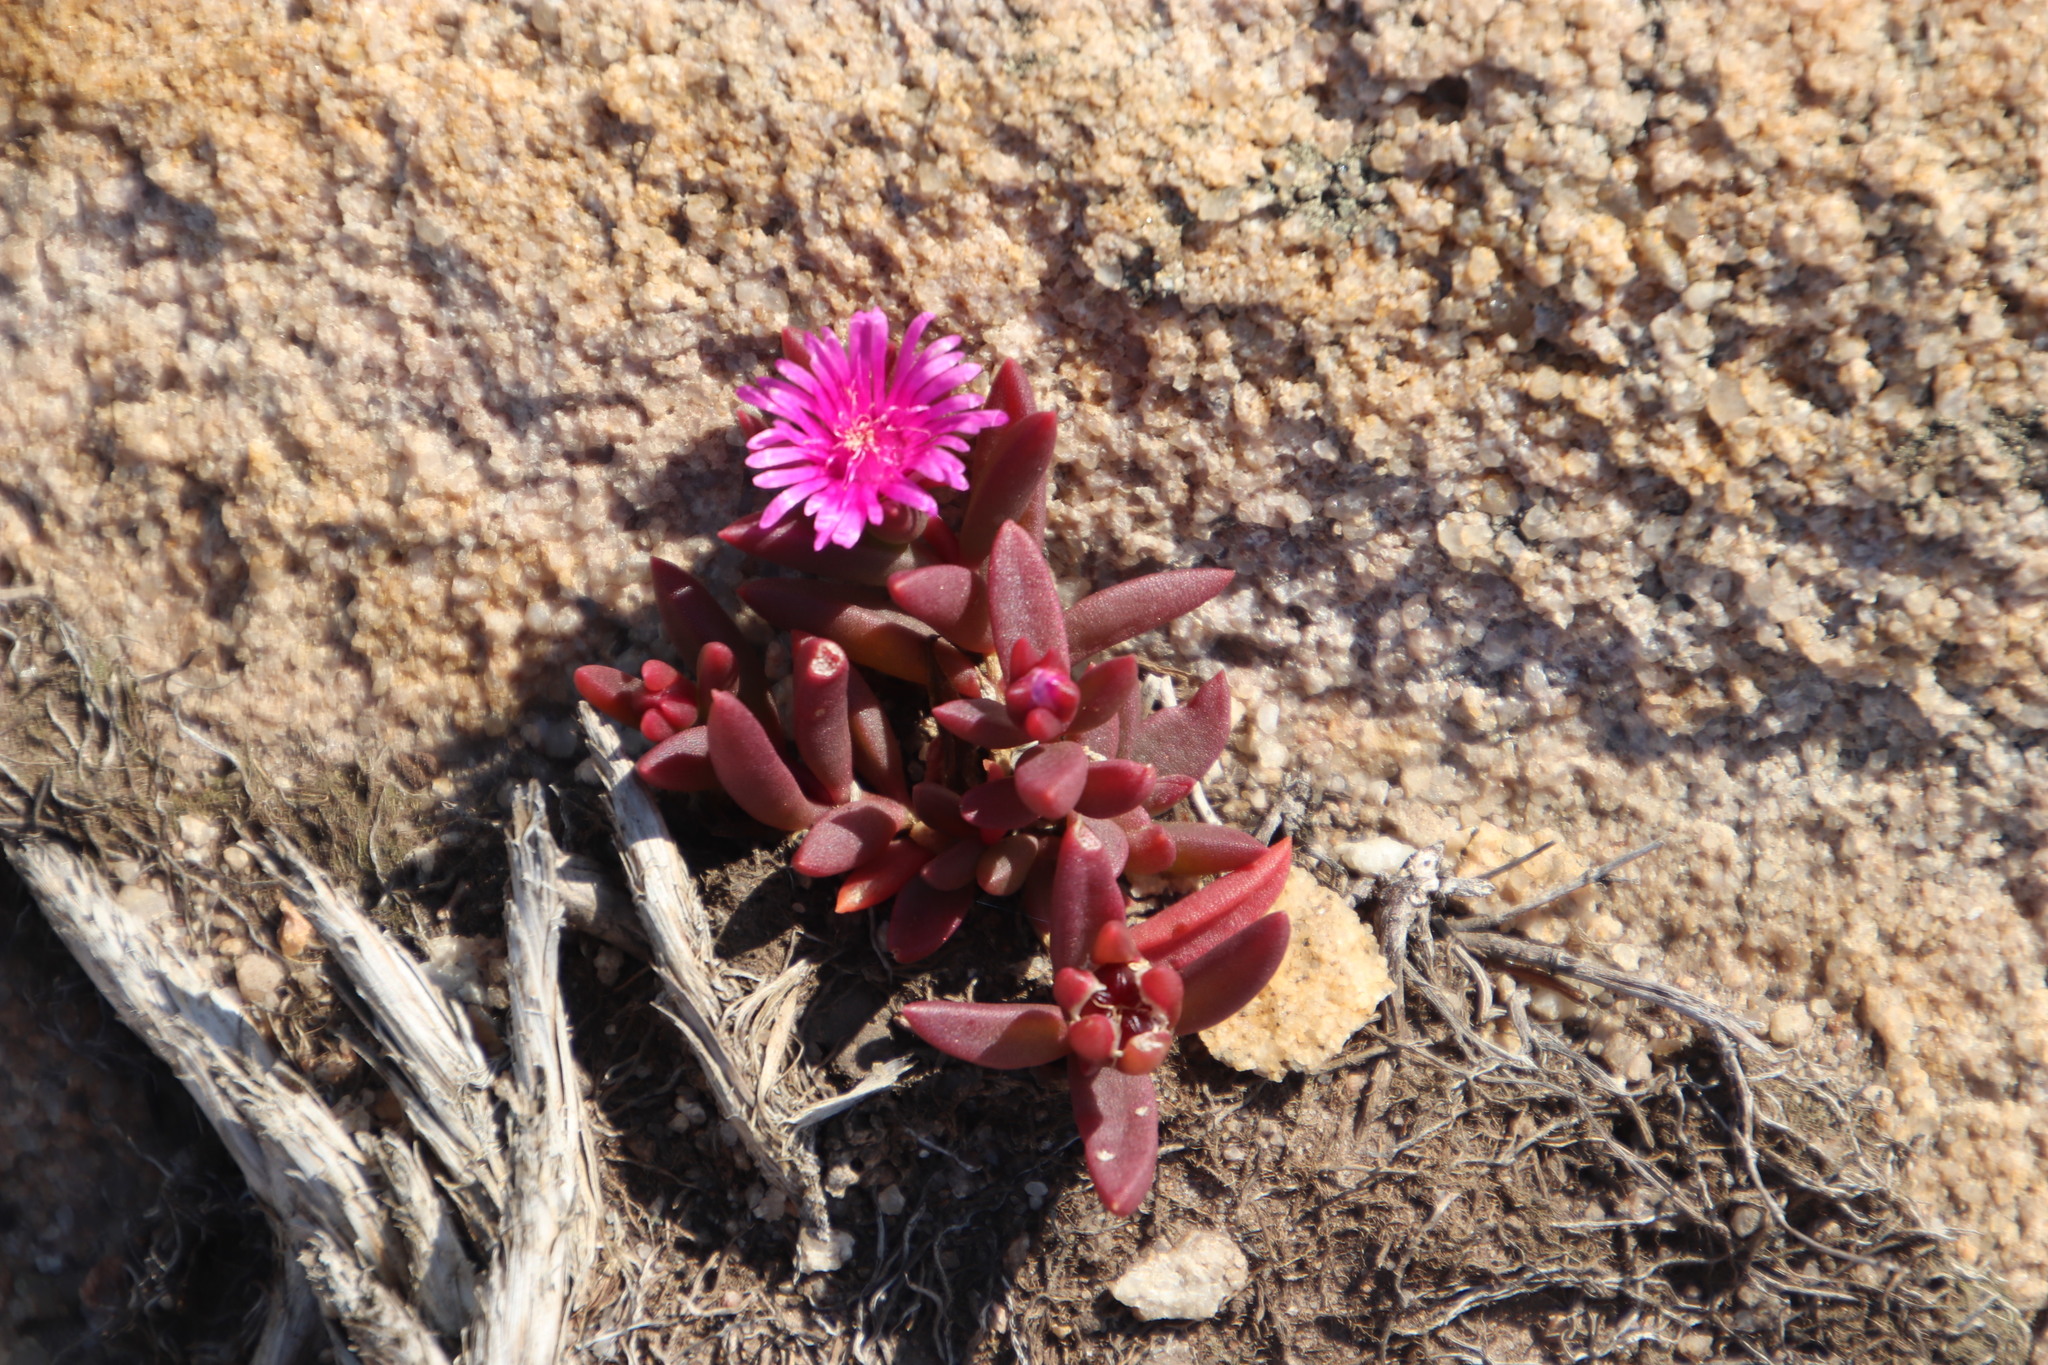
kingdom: Plantae
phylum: Tracheophyta
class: Magnoliopsida
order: Caryophyllales
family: Aizoaceae
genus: Delosperma
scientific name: Delosperma repens
